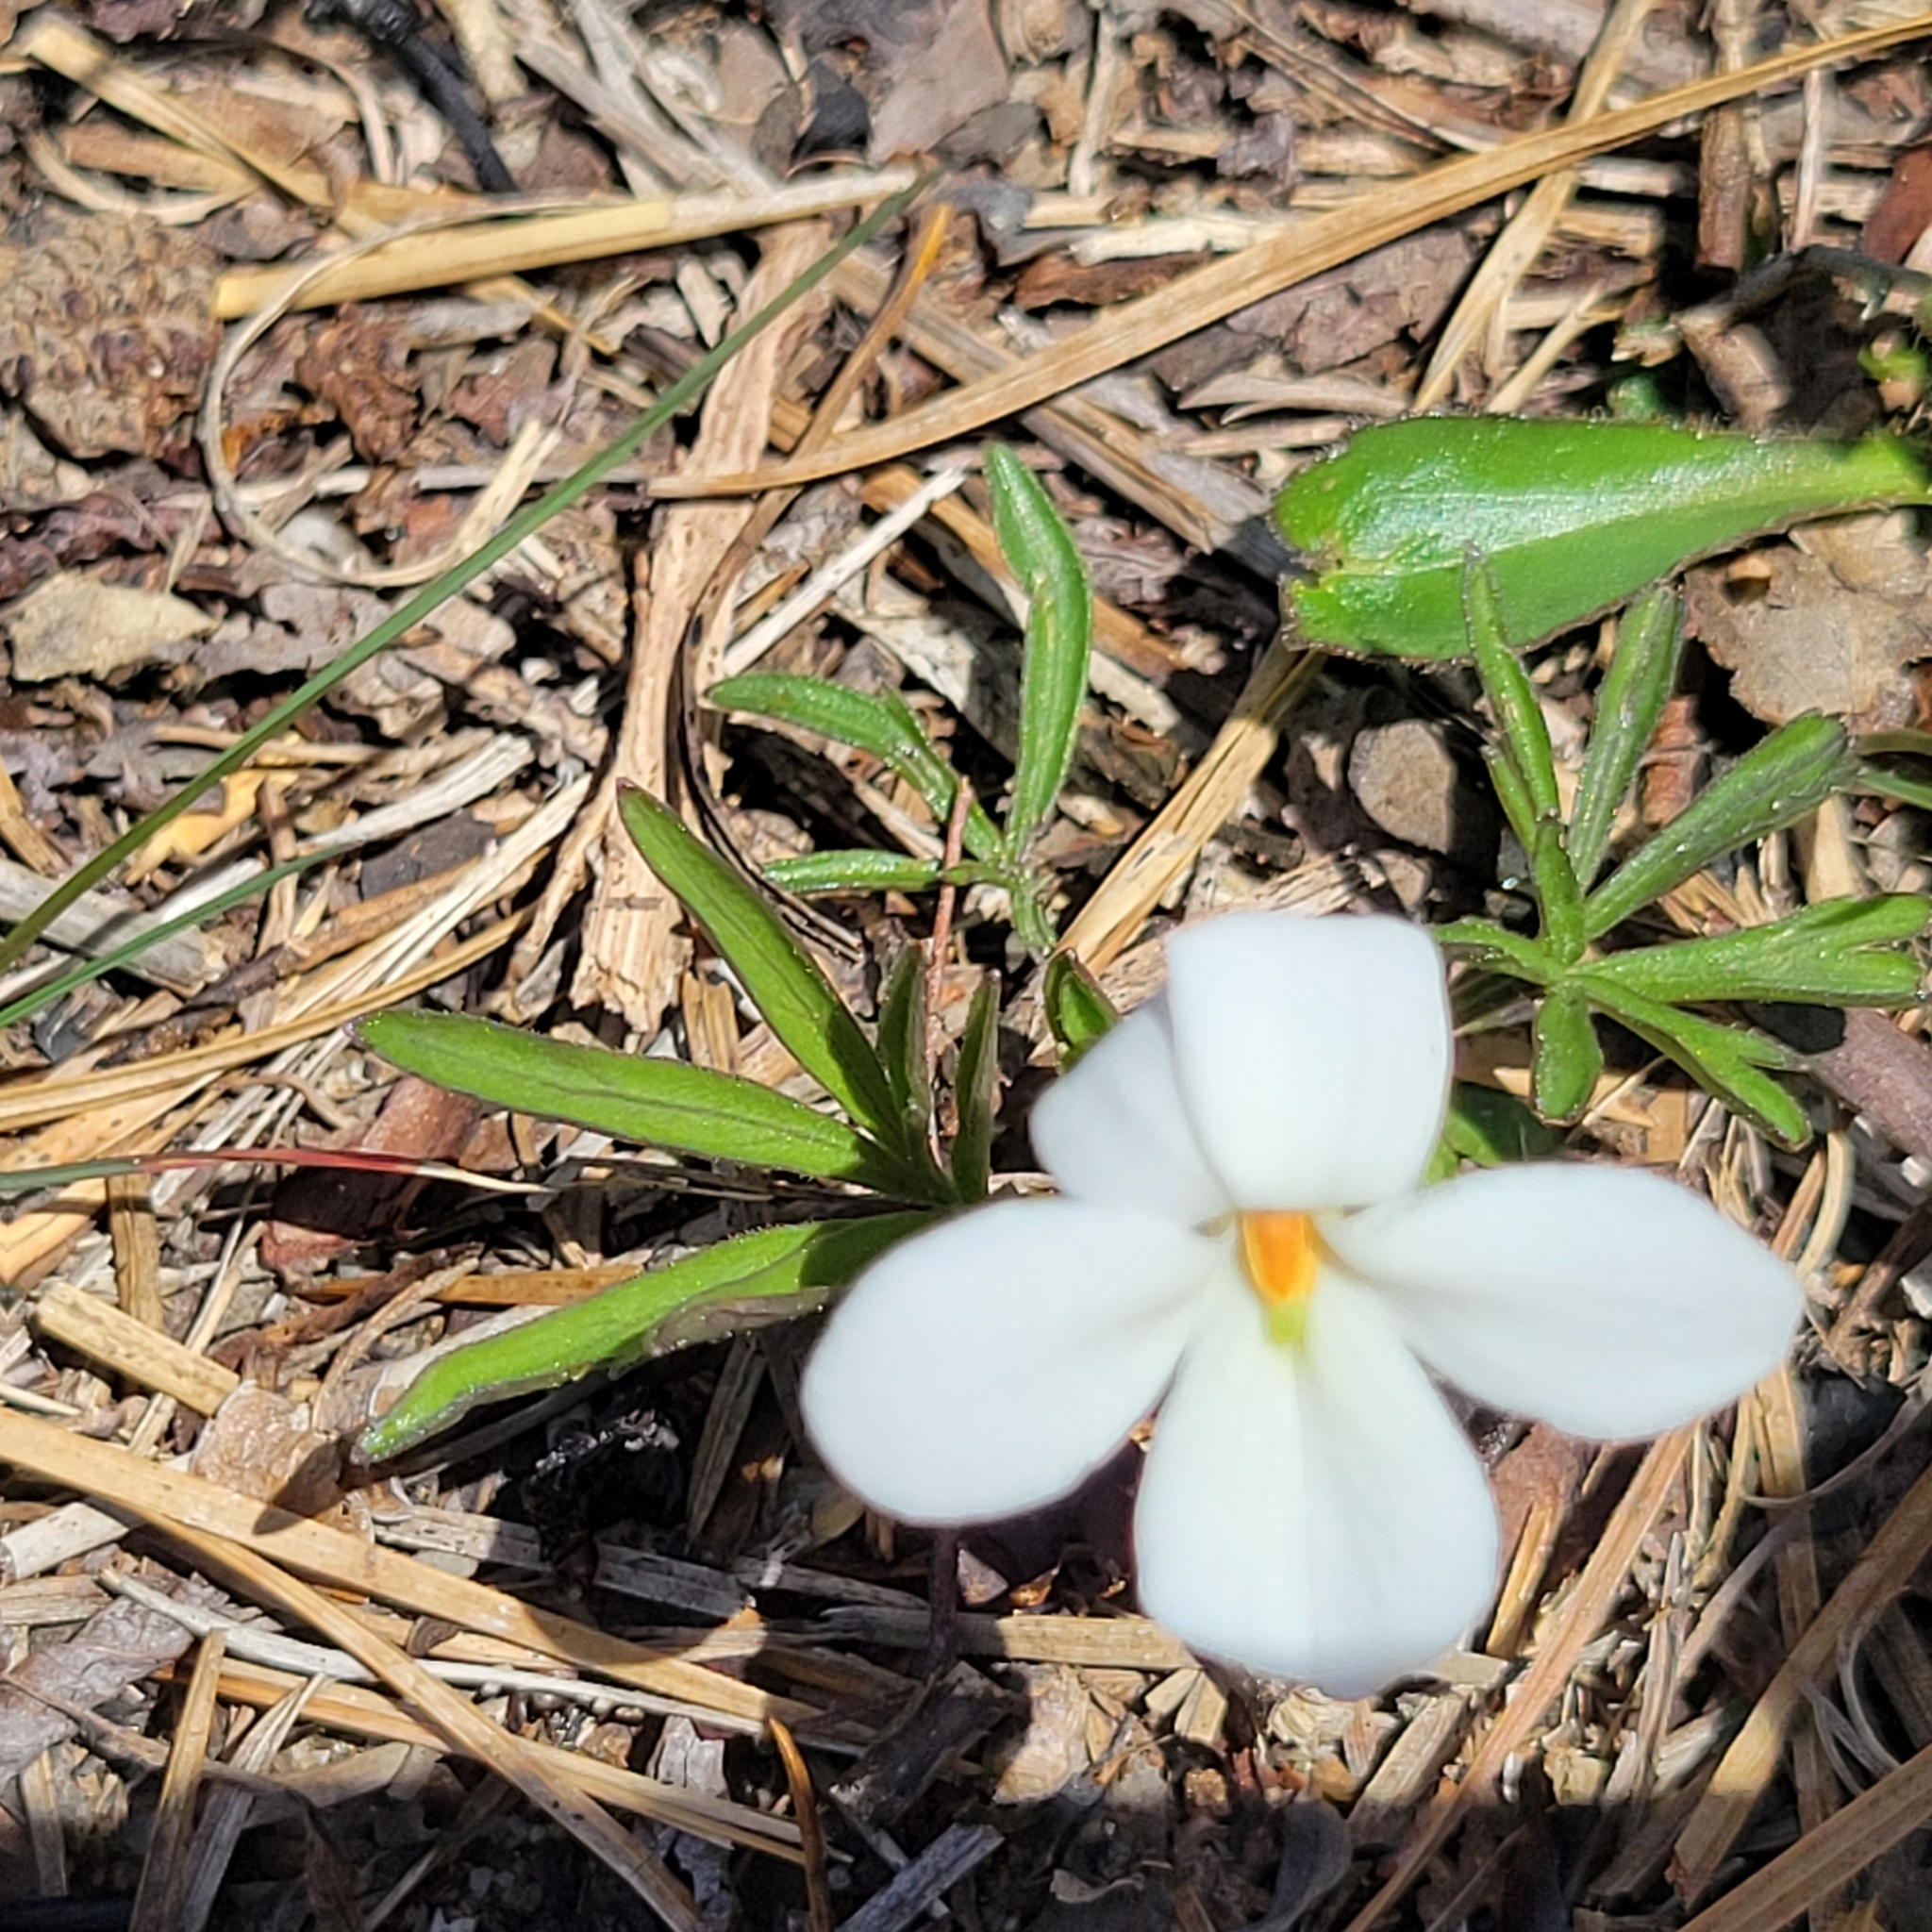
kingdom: Plantae
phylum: Tracheophyta
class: Magnoliopsida
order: Malpighiales
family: Violaceae
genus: Viola
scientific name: Viola pedata
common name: Pansy violet
